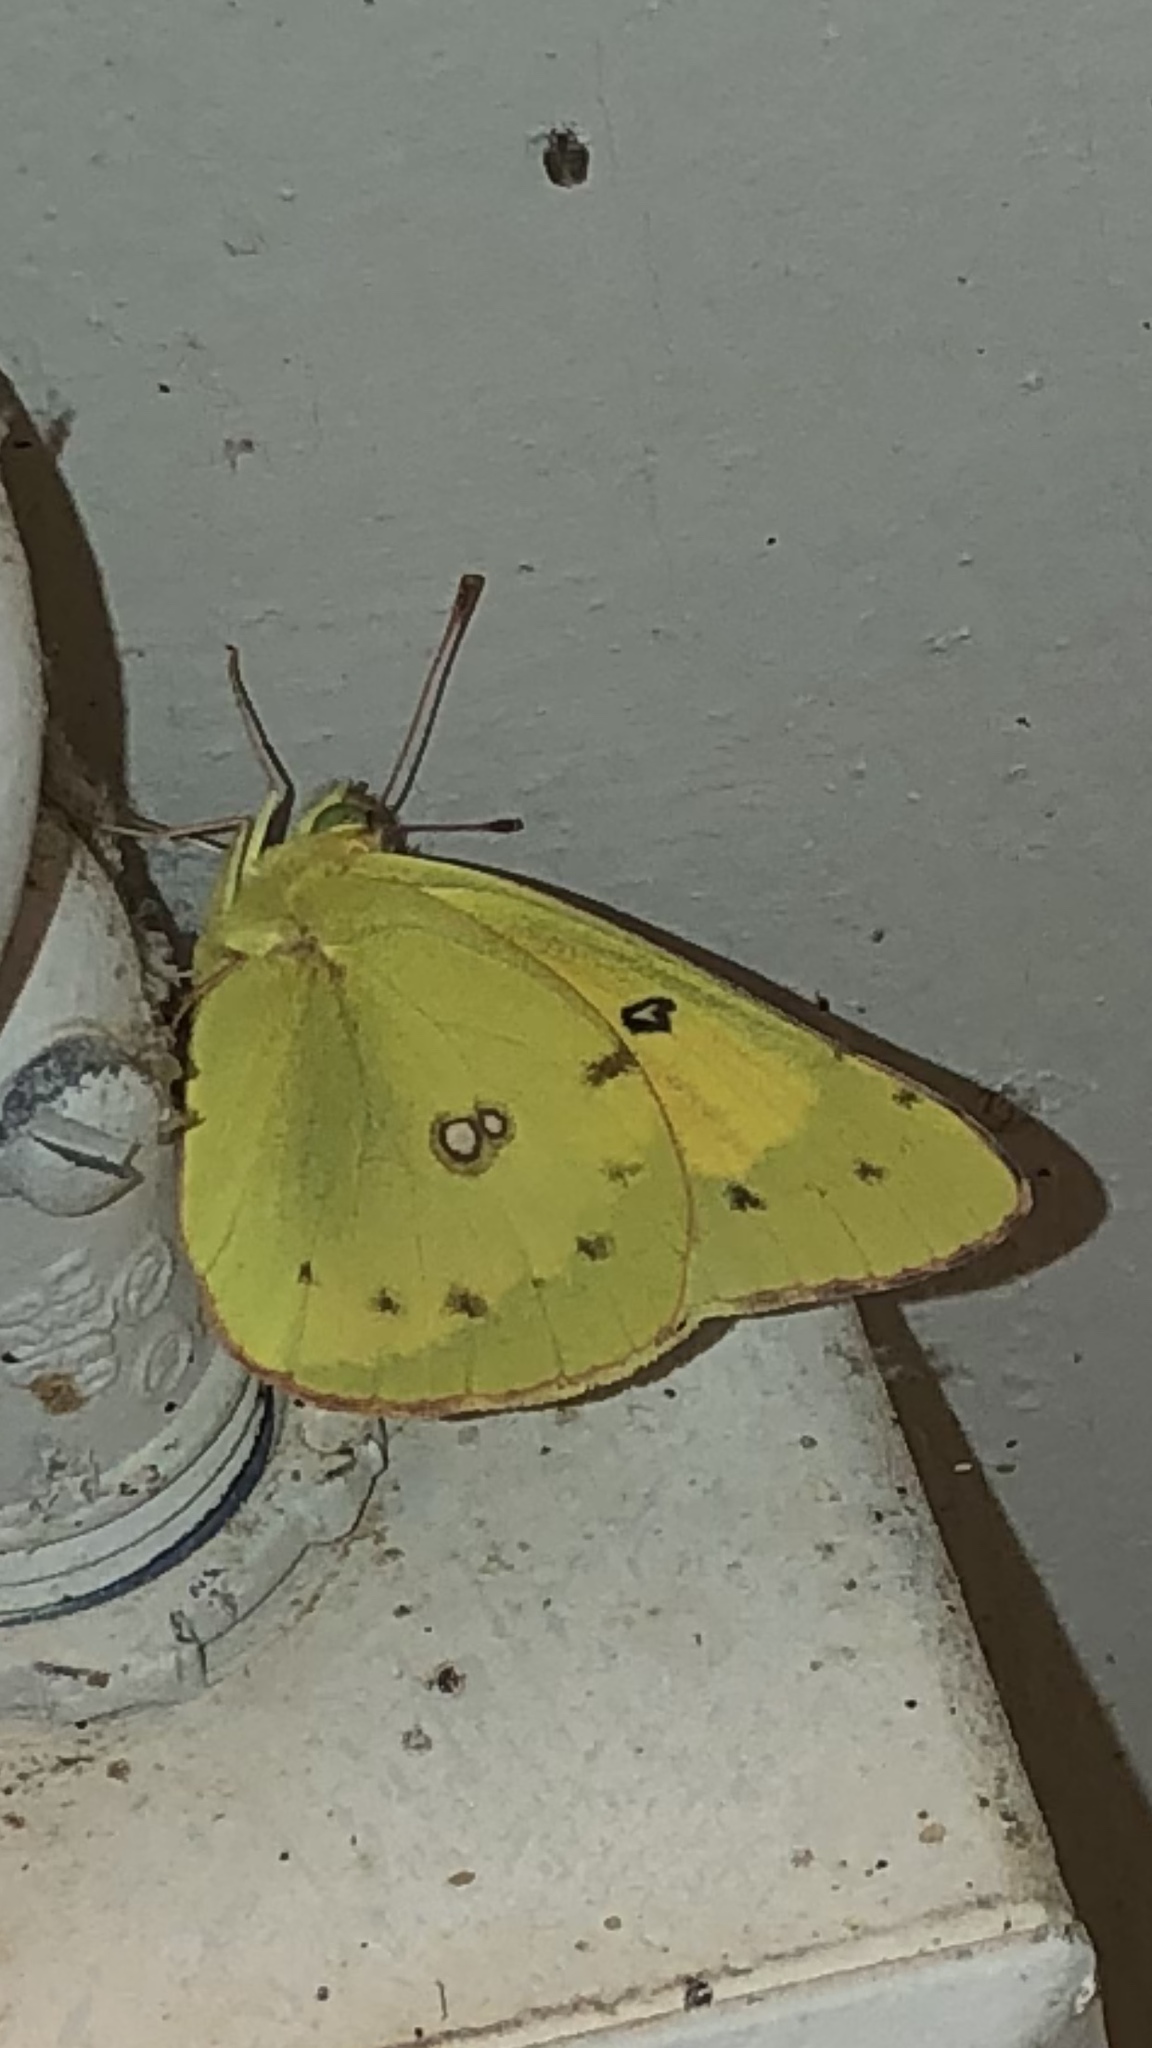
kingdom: Animalia
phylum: Arthropoda
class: Insecta
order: Lepidoptera
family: Pieridae
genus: Colias
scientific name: Colias eurytheme
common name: Alfalfa butterfly
